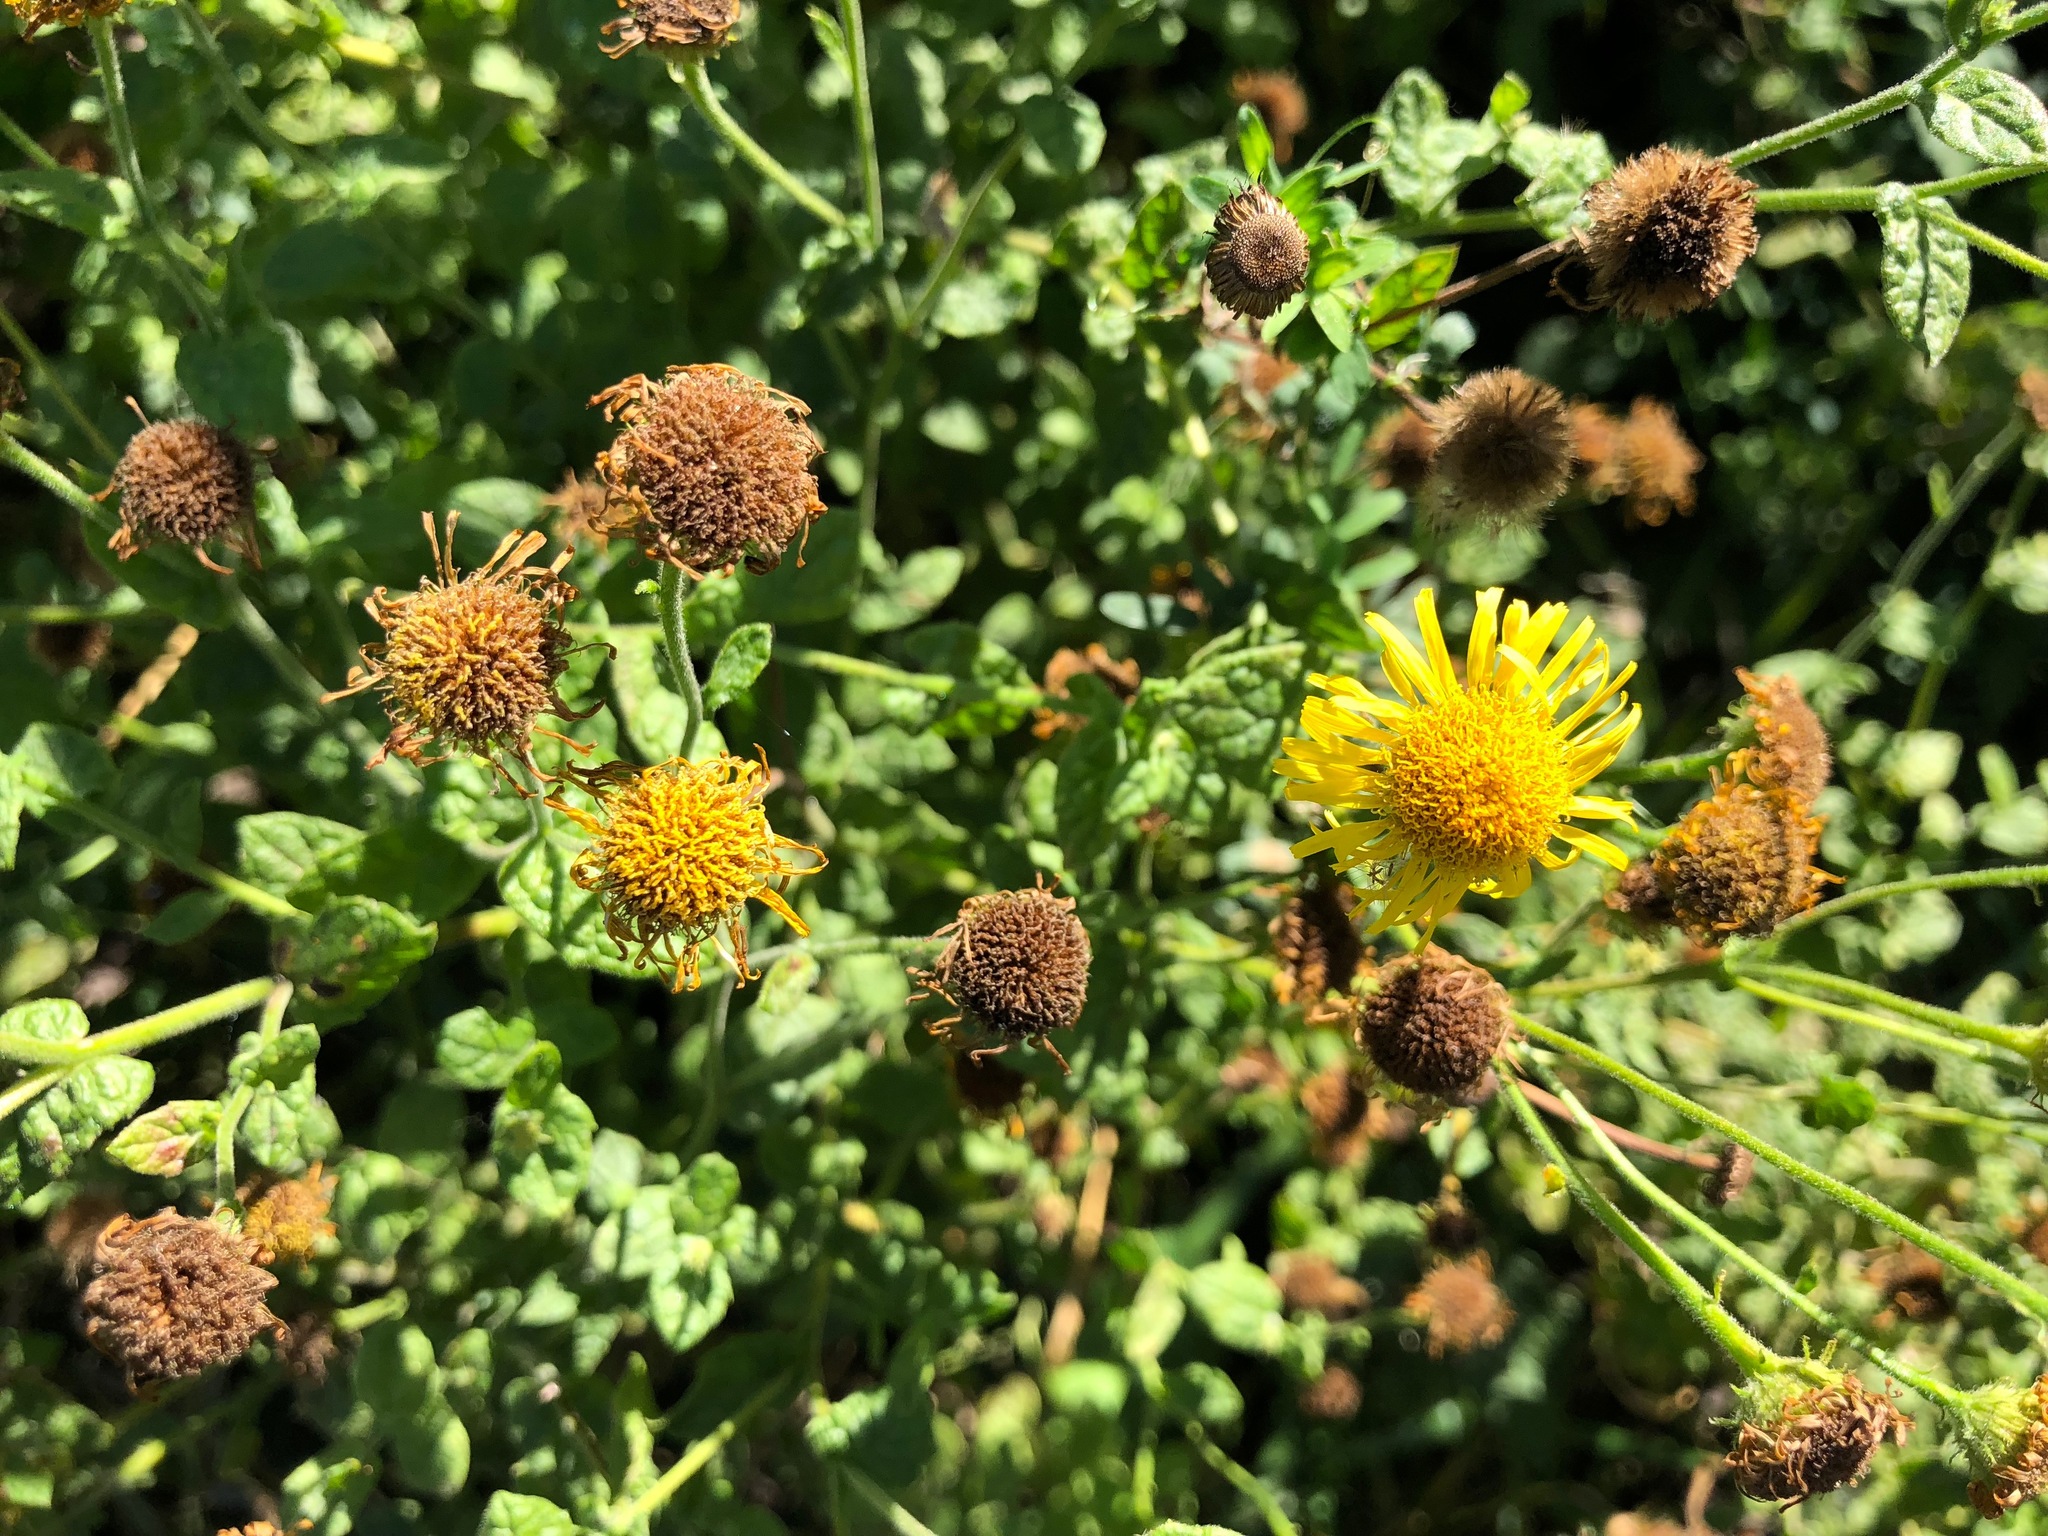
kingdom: Plantae
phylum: Tracheophyta
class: Magnoliopsida
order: Asterales
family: Asteraceae
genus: Pulicaria
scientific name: Pulicaria dysenterica
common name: Common fleabane
